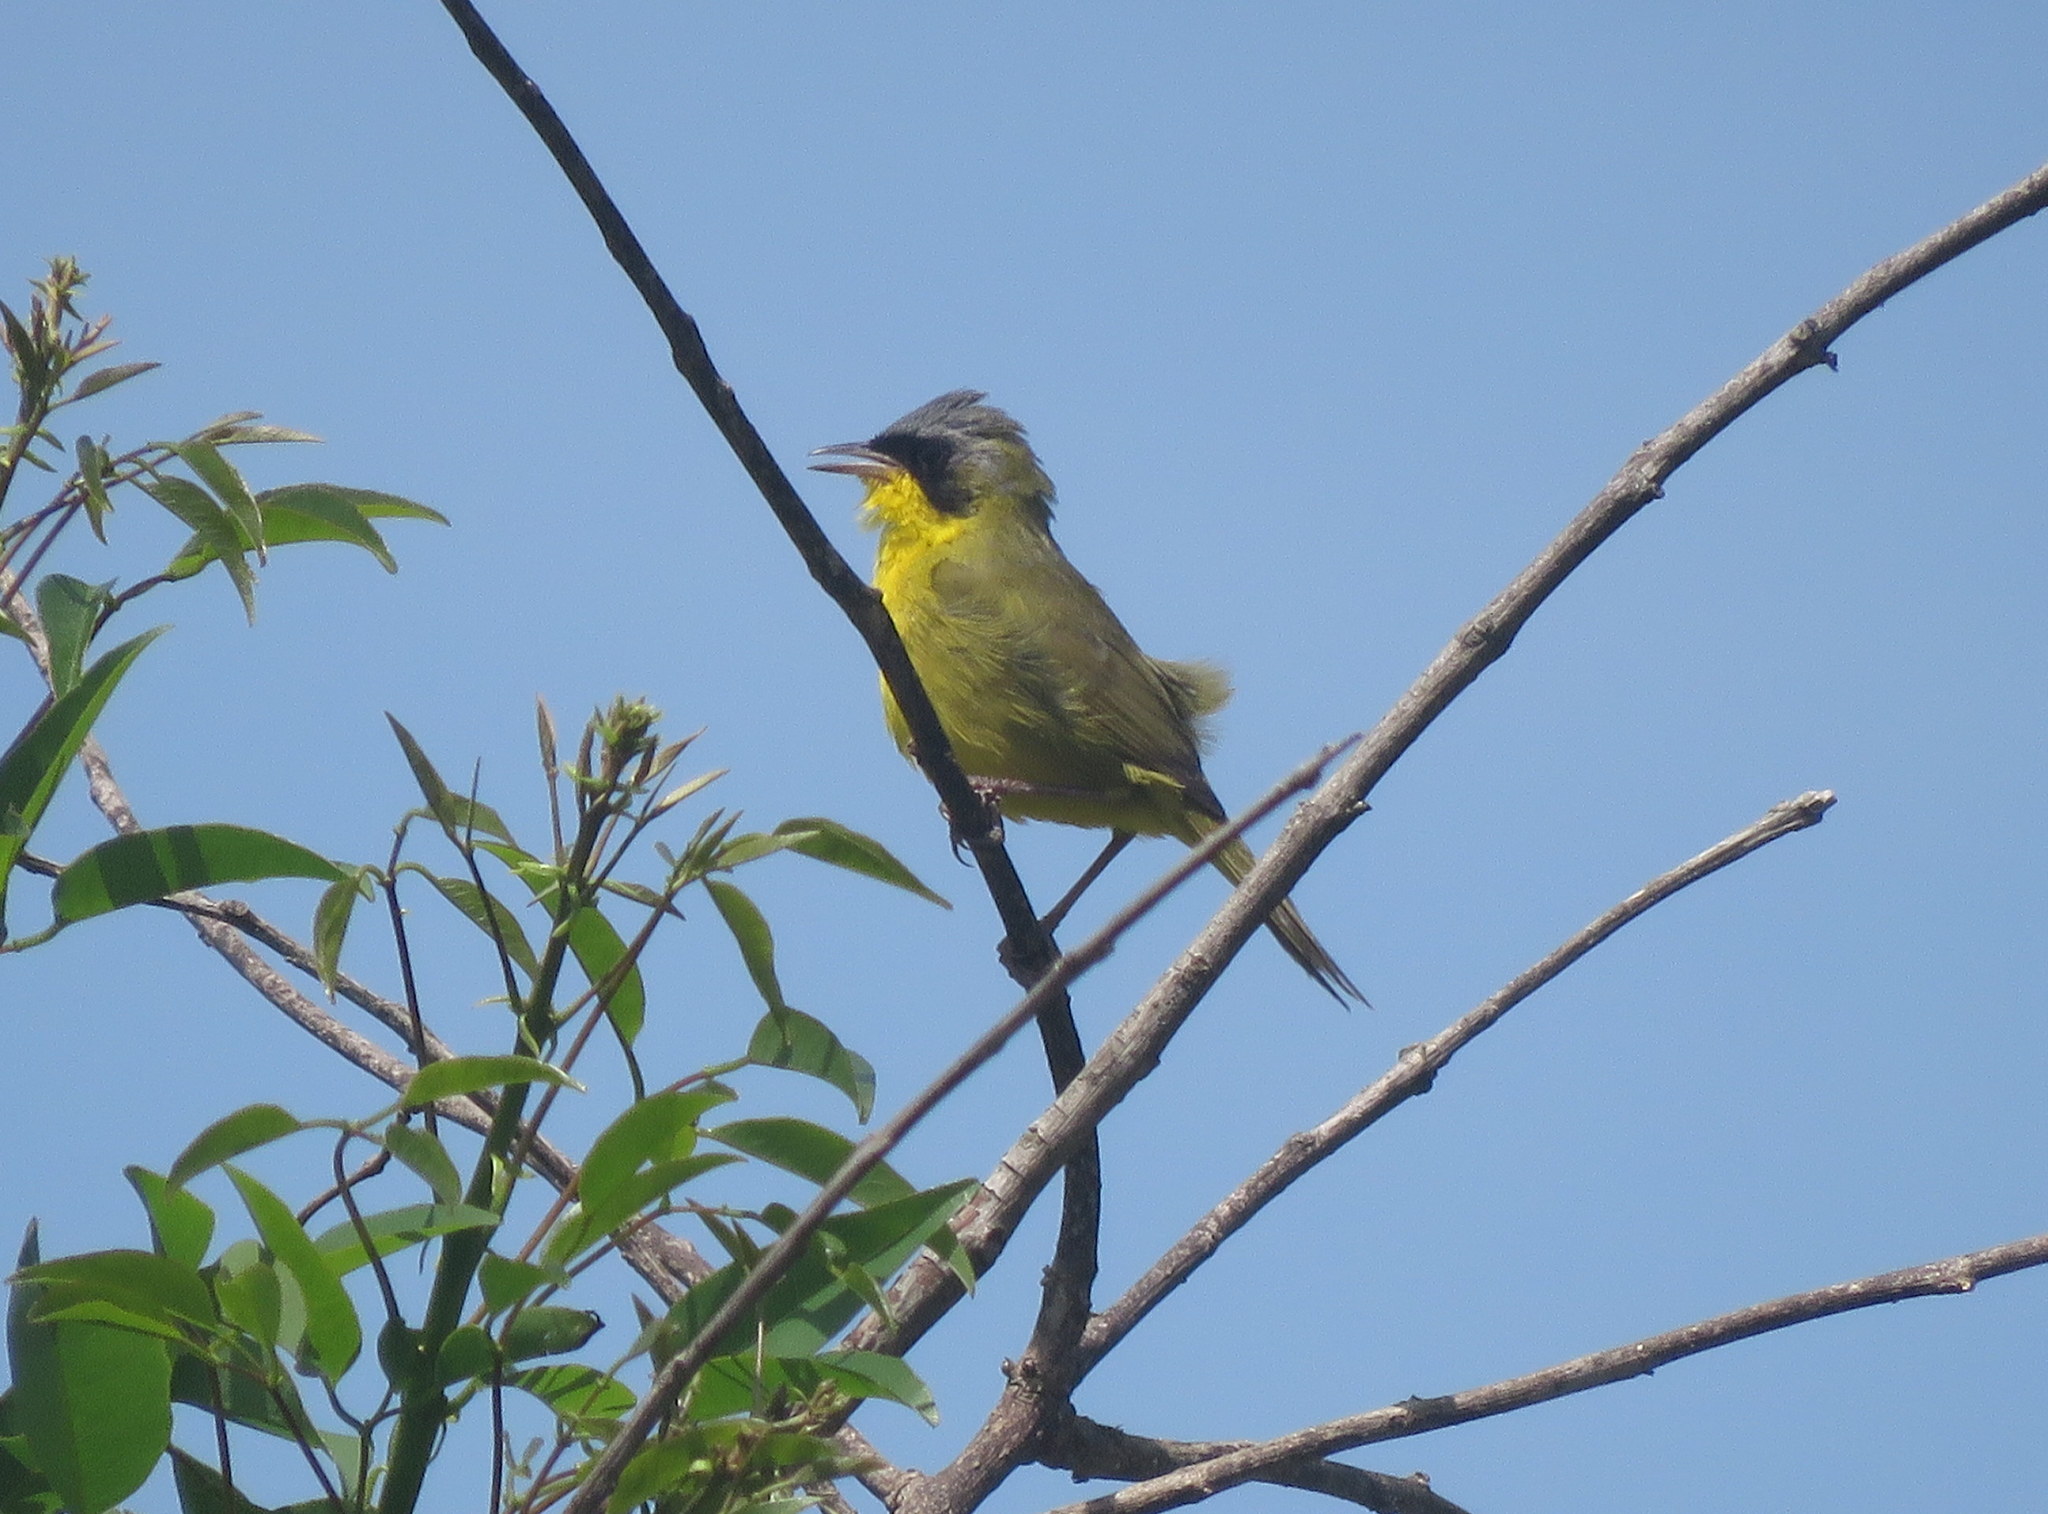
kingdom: Animalia
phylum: Chordata
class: Aves
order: Passeriformes
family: Parulidae
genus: Geothlypis
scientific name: Geothlypis velata
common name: Southern yellowthroat
